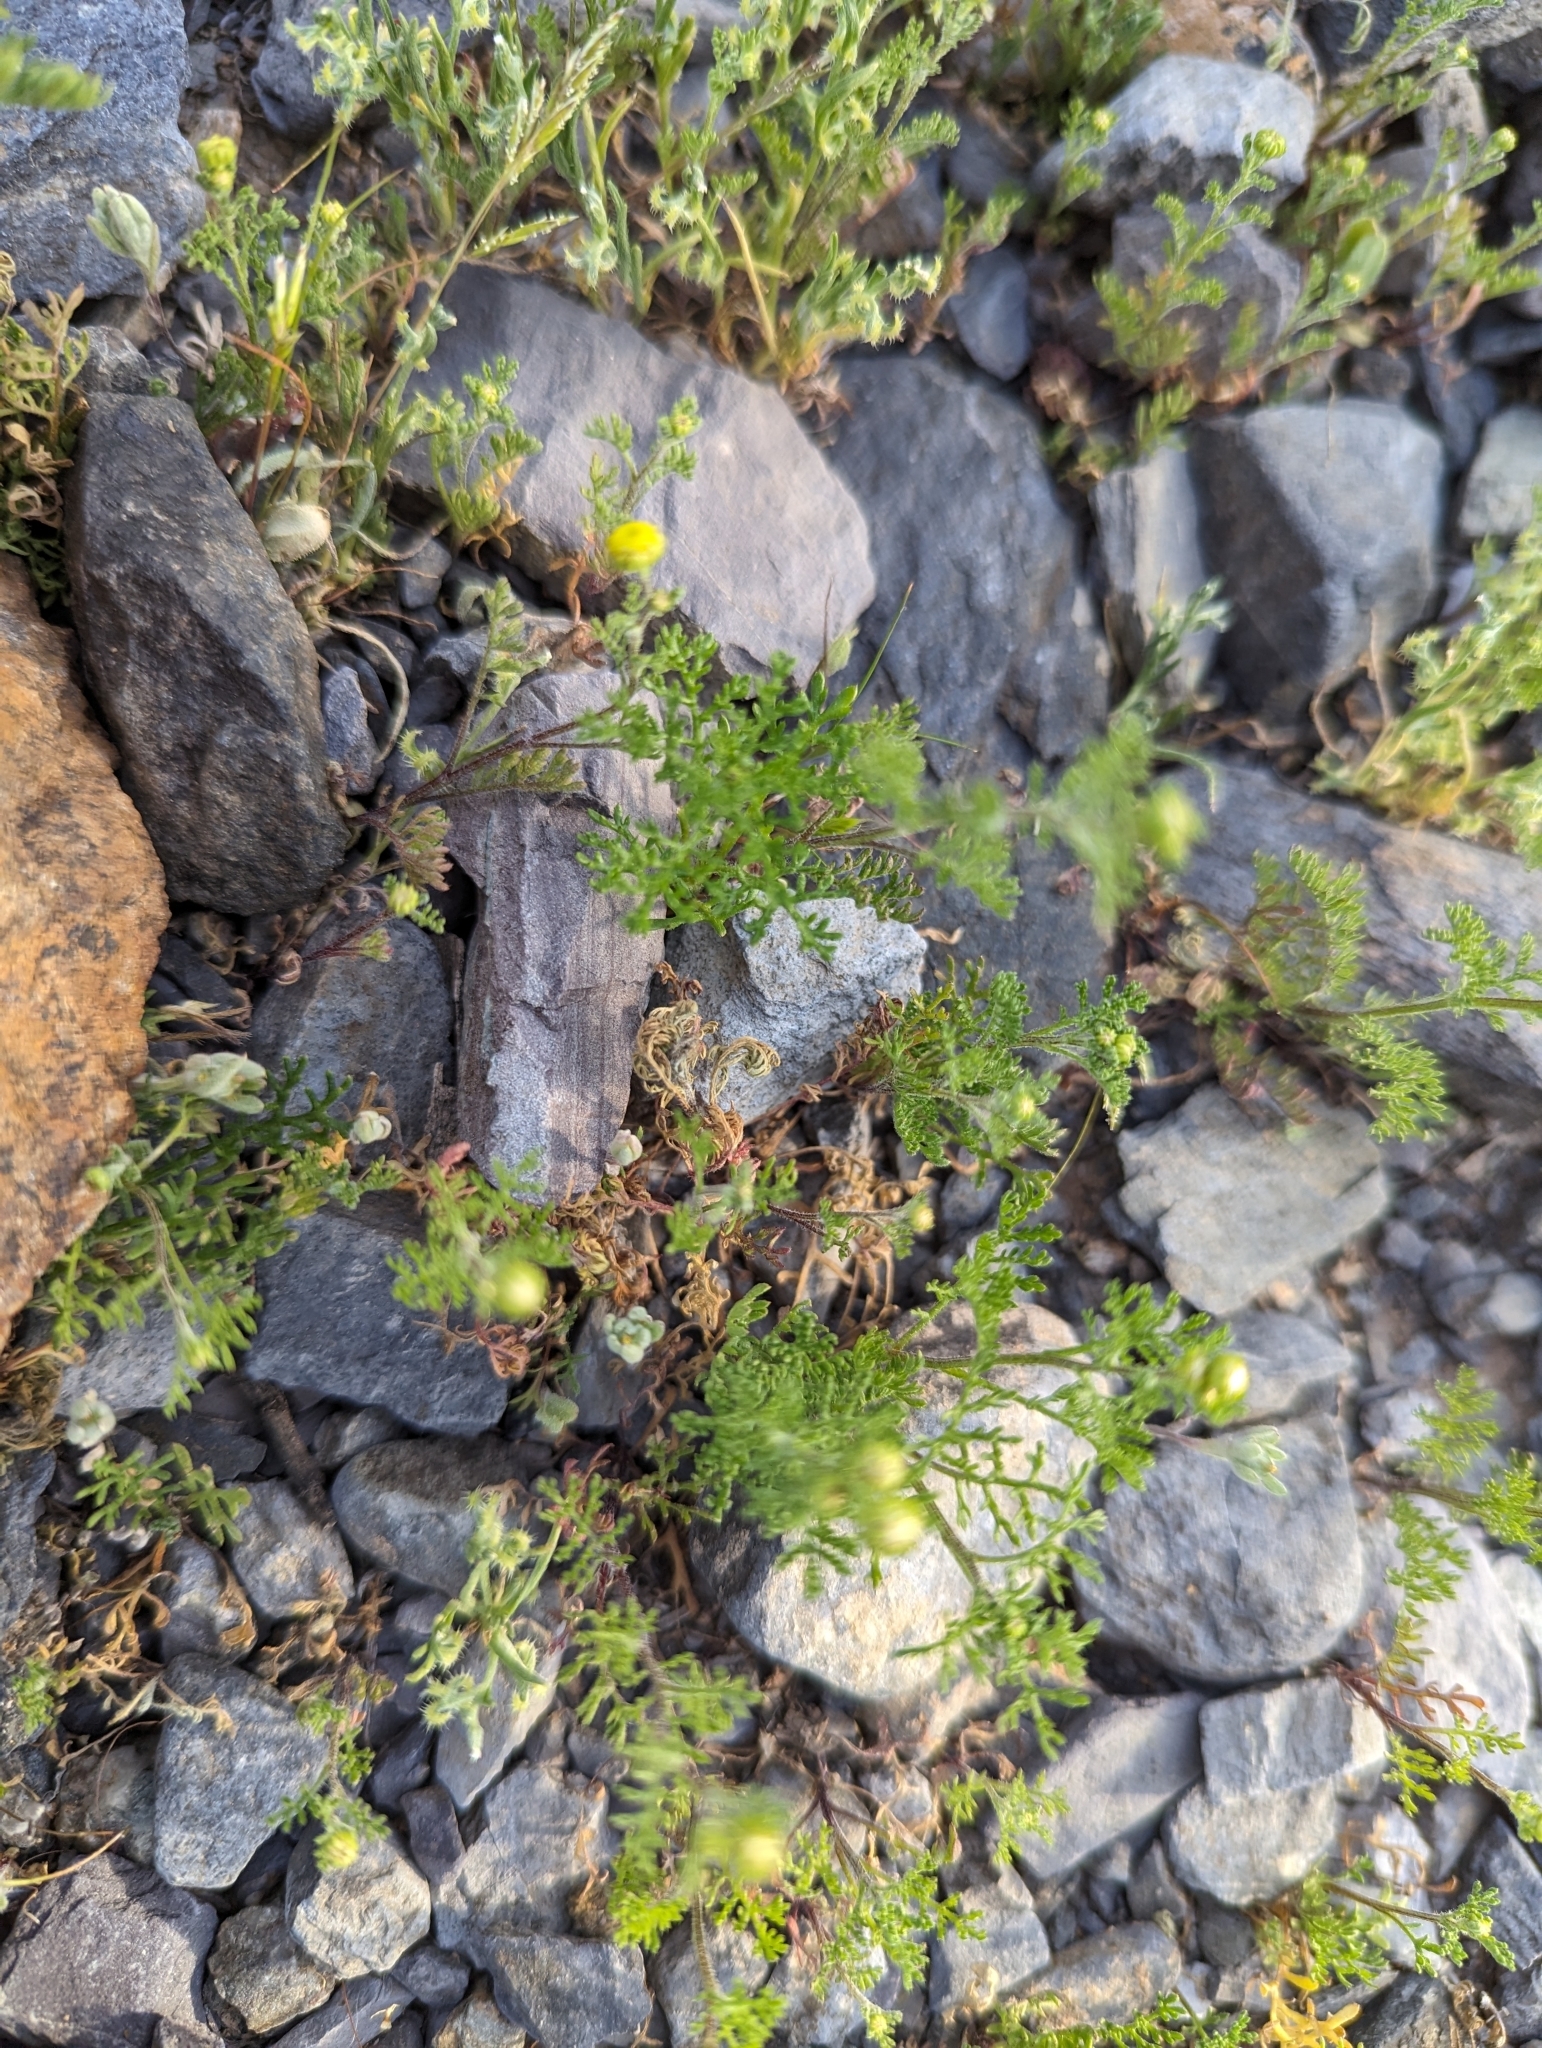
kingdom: Plantae
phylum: Tracheophyta
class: Magnoliopsida
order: Asterales
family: Asteraceae
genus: Oncosiphon
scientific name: Oncosiphon pilulifer
